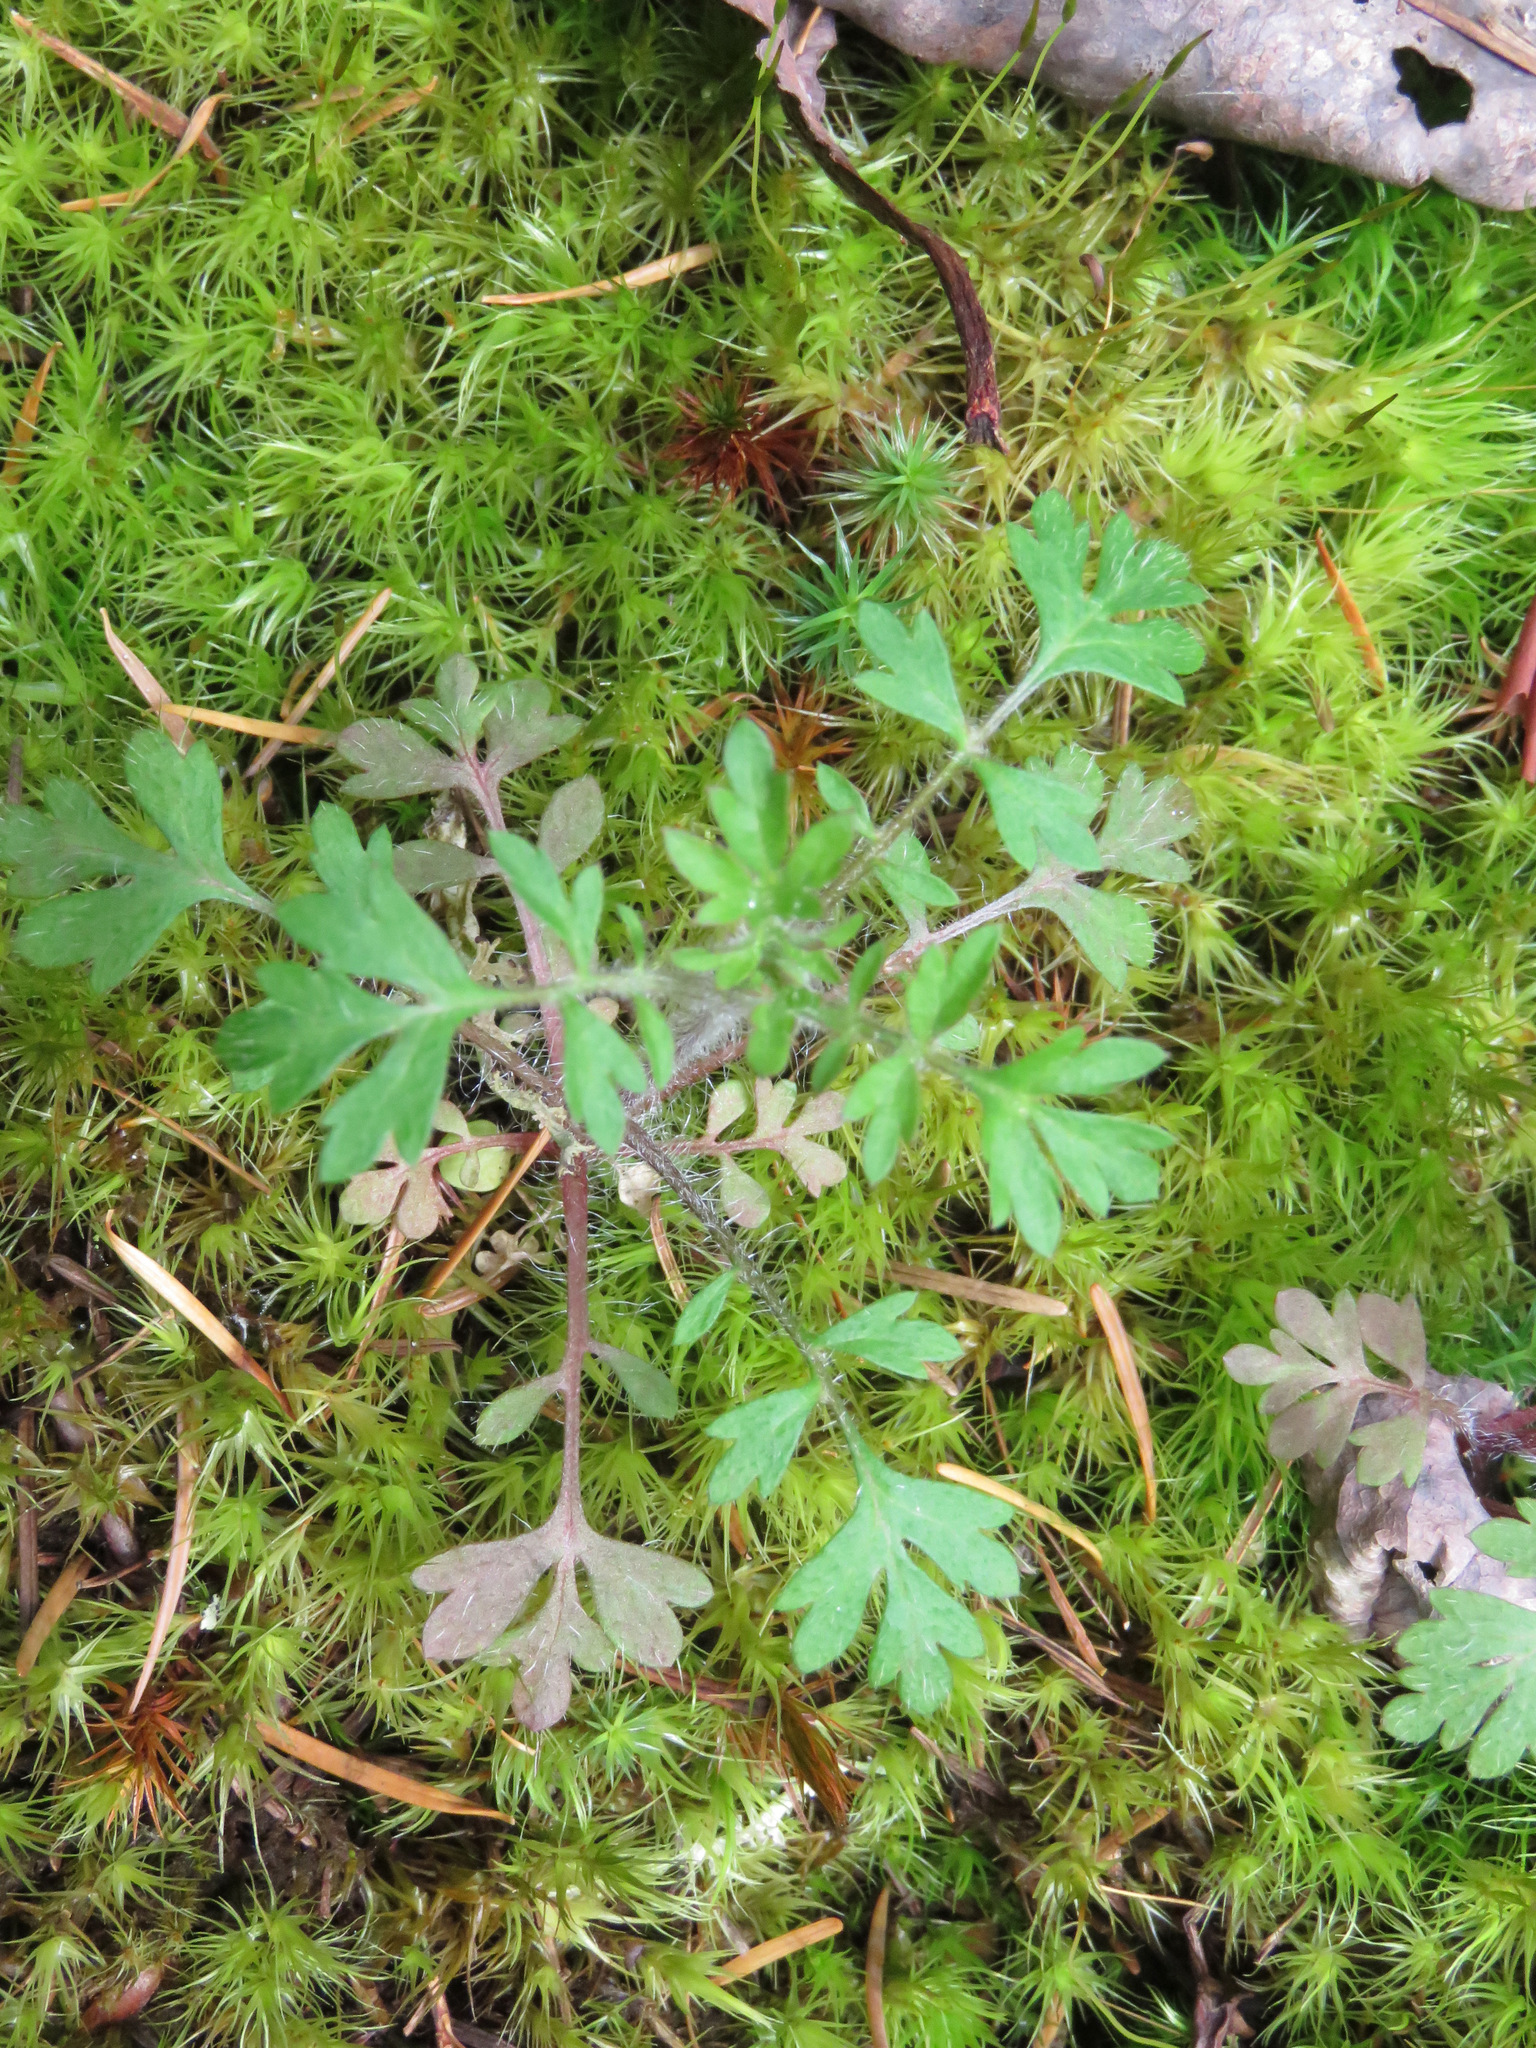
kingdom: Plantae
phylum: Tracheophyta
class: Magnoliopsida
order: Ericales
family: Polemoniaceae
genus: Collomia
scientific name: Collomia heterophylla
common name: Variable-leaved collomia
